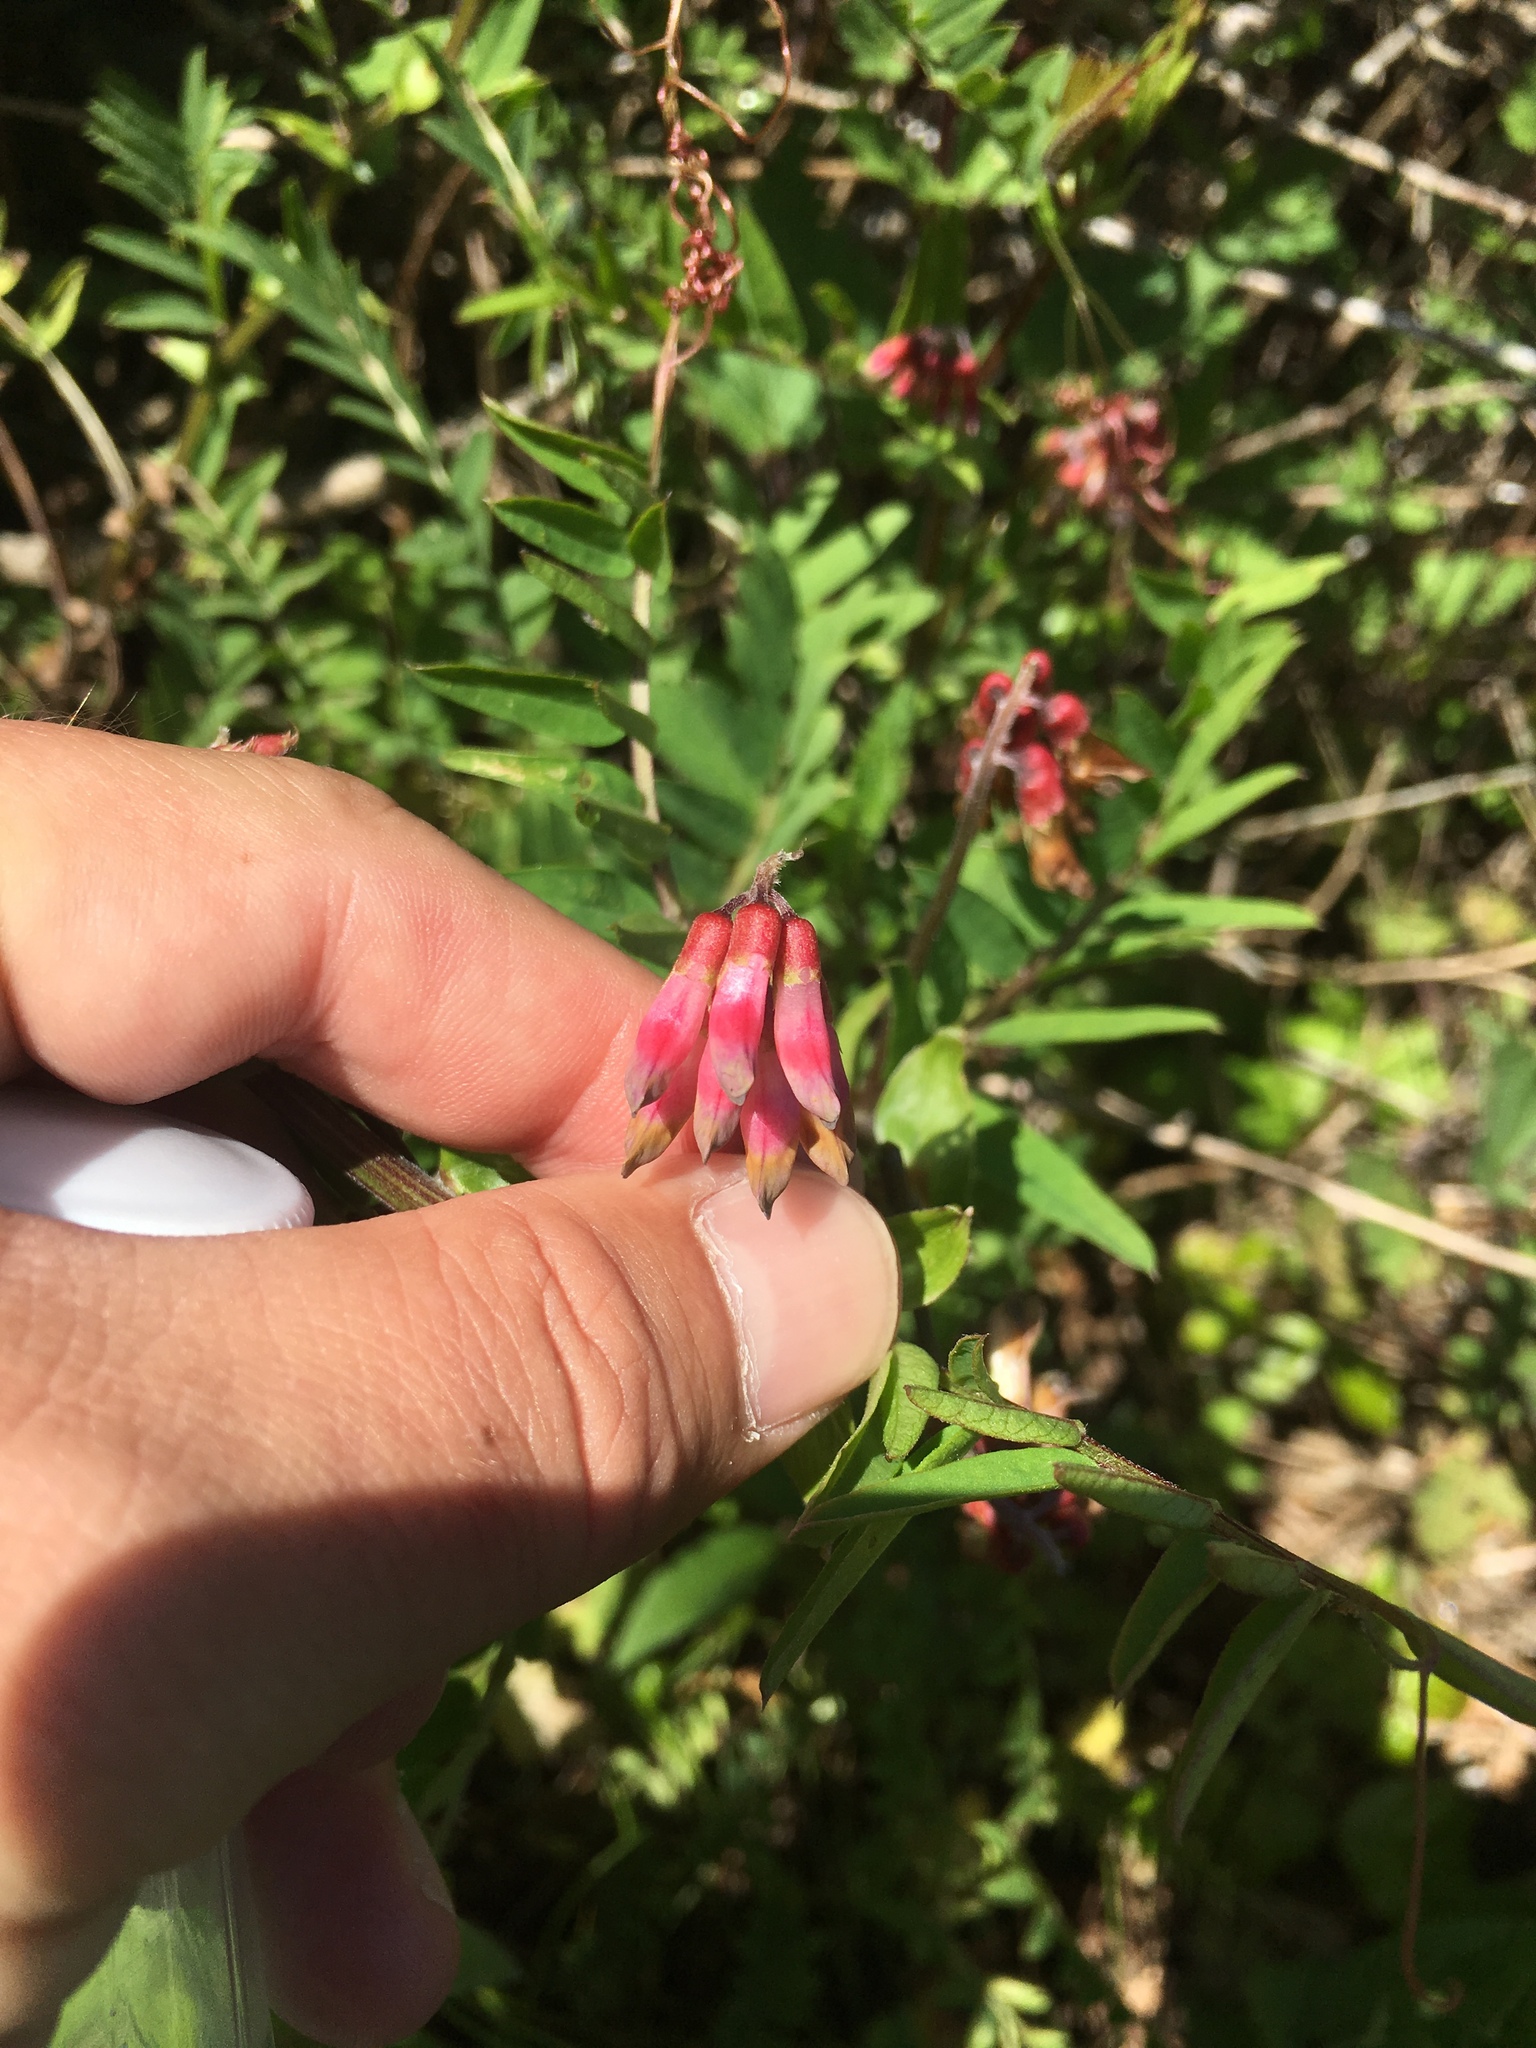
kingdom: Plantae
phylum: Tracheophyta
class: Magnoliopsida
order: Fabales
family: Fabaceae
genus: Vicia
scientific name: Vicia
